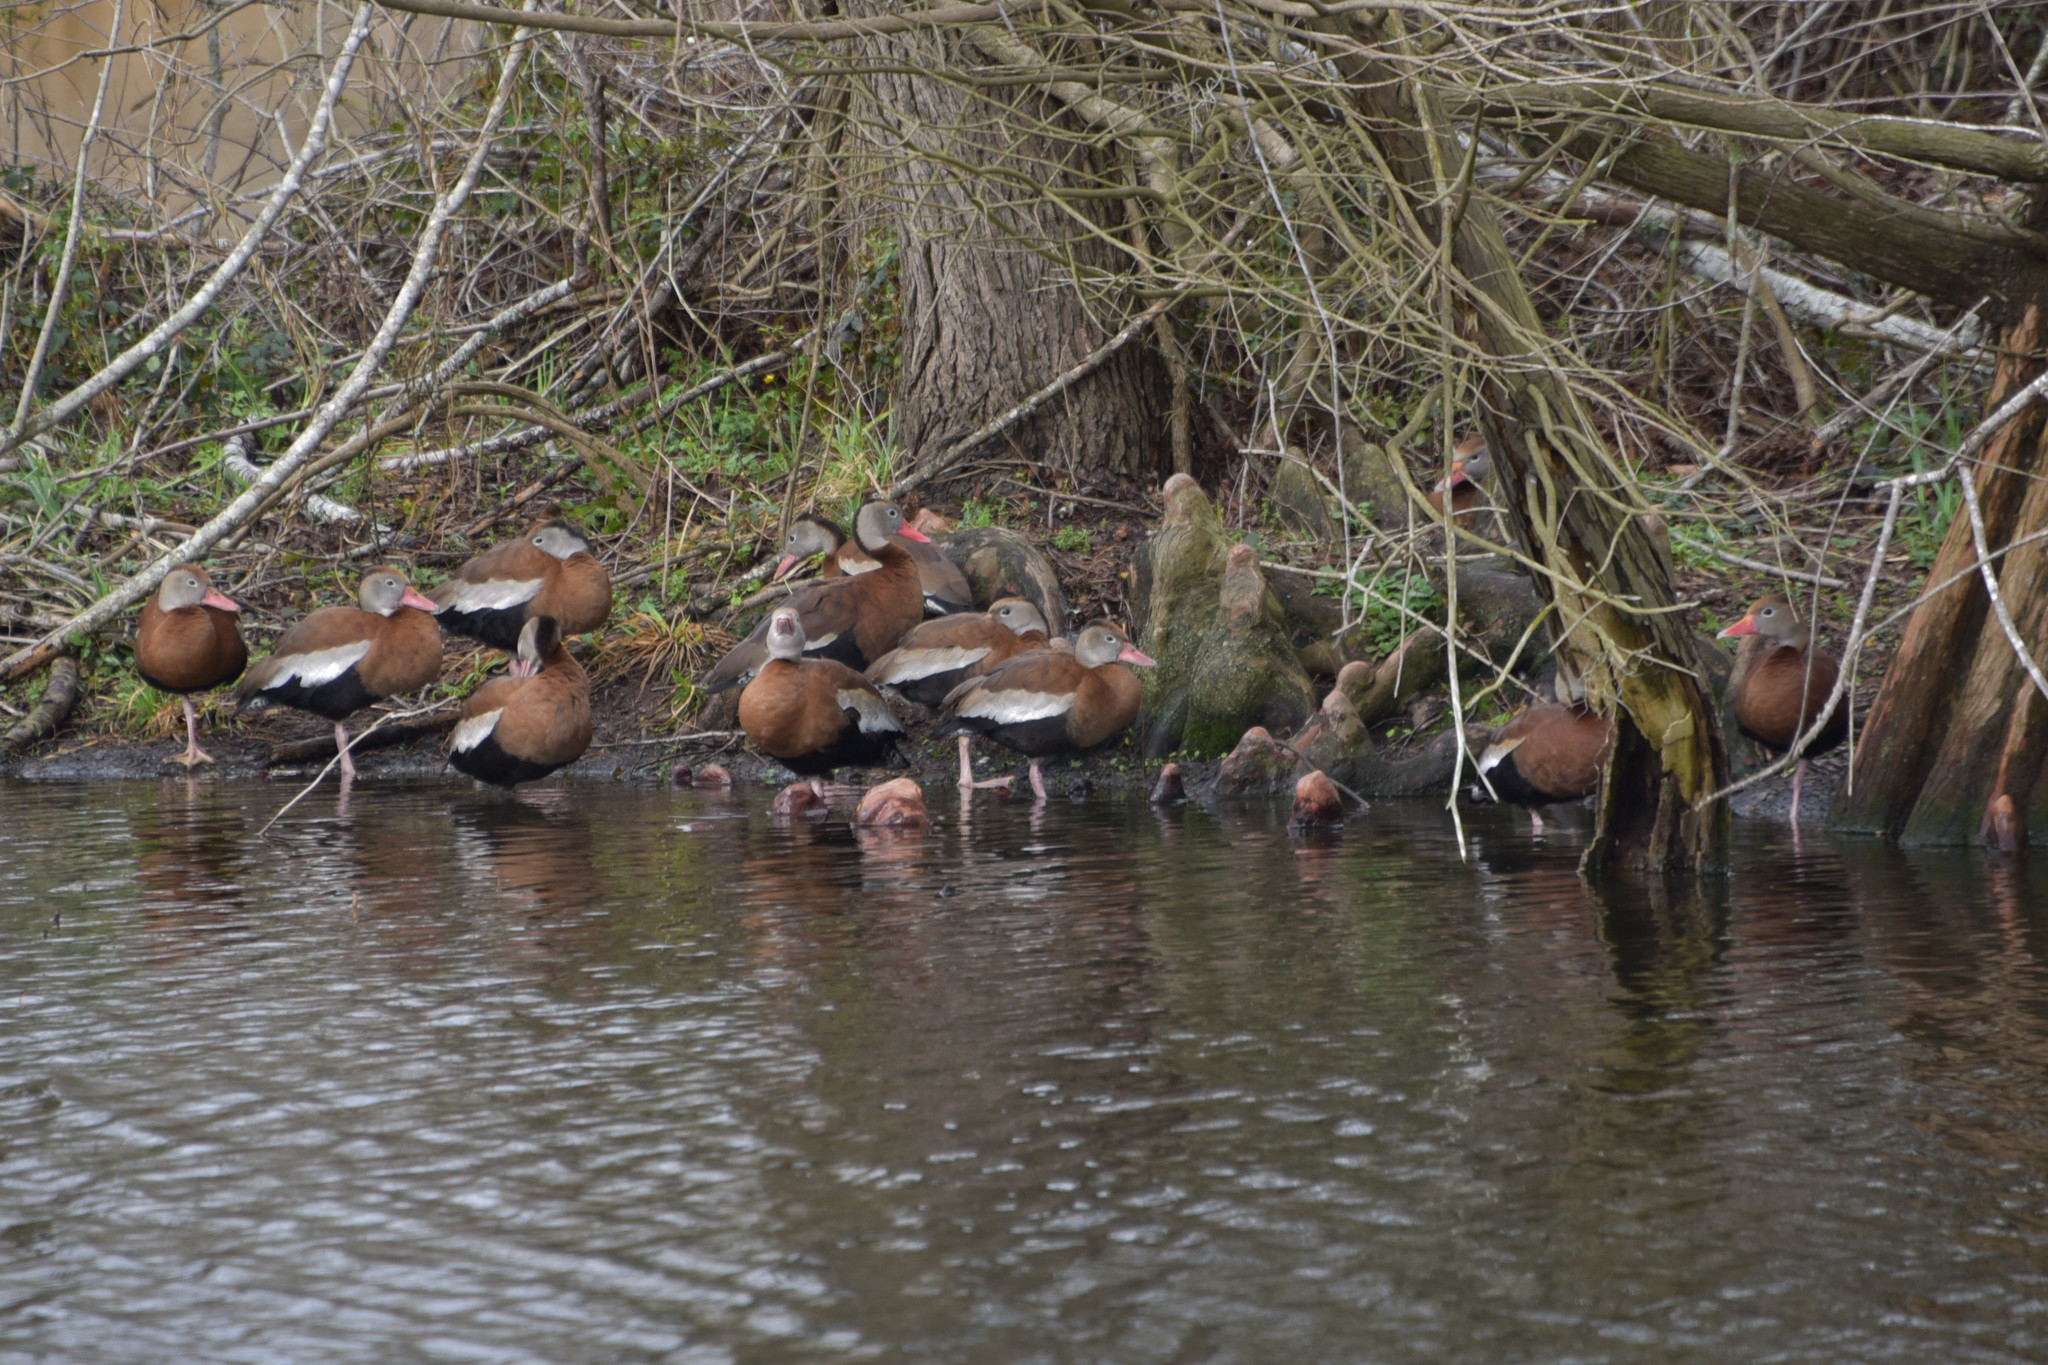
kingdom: Animalia
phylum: Chordata
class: Aves
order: Anseriformes
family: Anatidae
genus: Dendrocygna
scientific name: Dendrocygna autumnalis
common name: Black-bellied whistling duck
